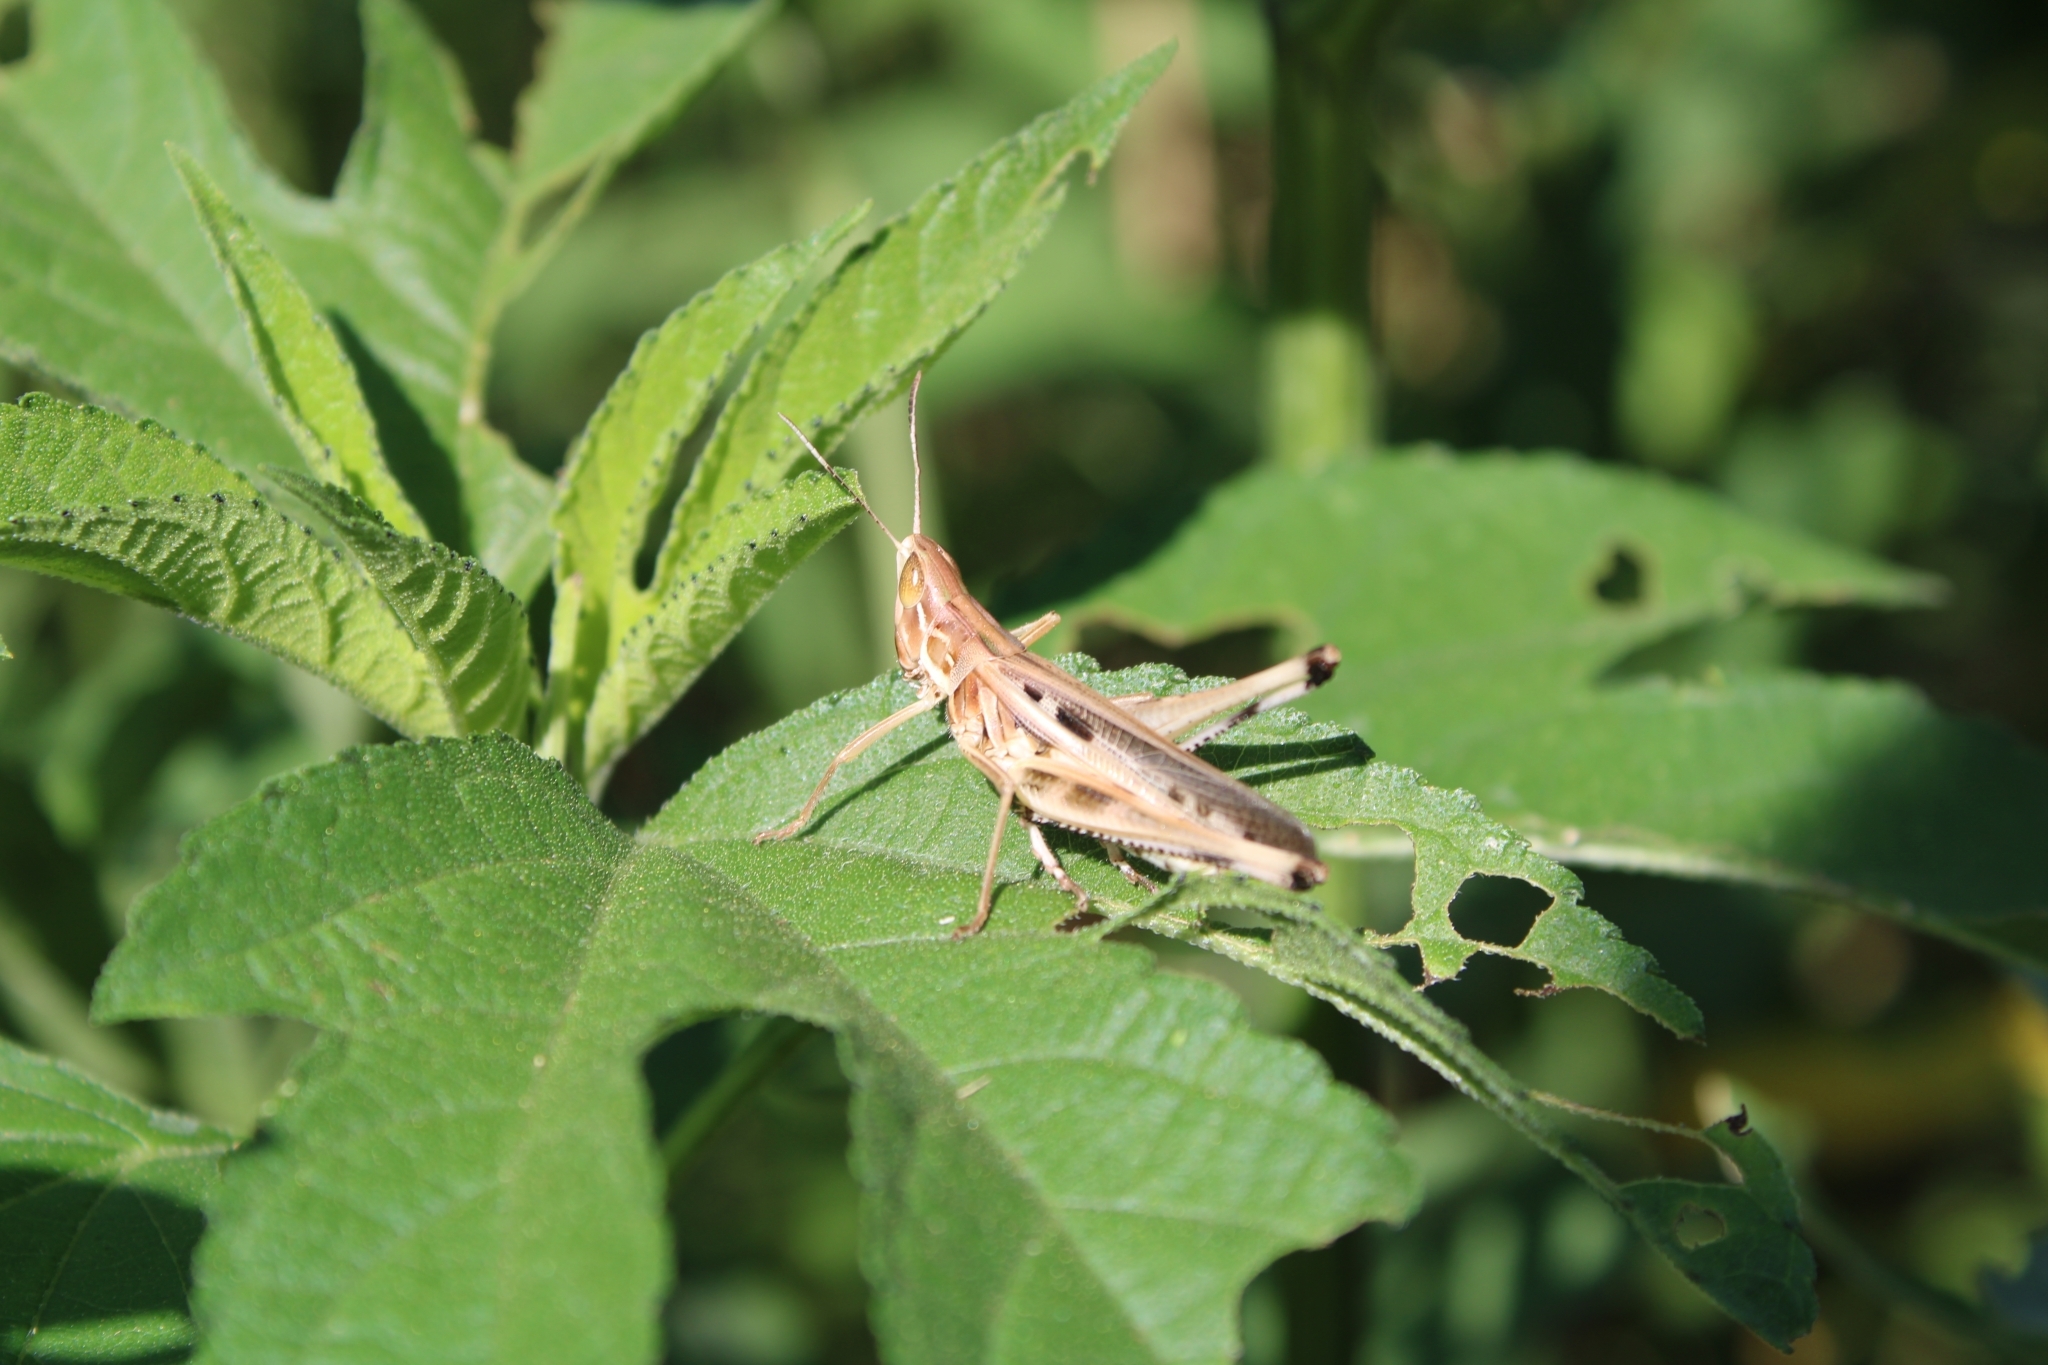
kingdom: Animalia
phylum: Arthropoda
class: Insecta
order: Orthoptera
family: Acrididae
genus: Syrbula
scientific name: Syrbula admirabilis
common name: Handsome grasshopper
